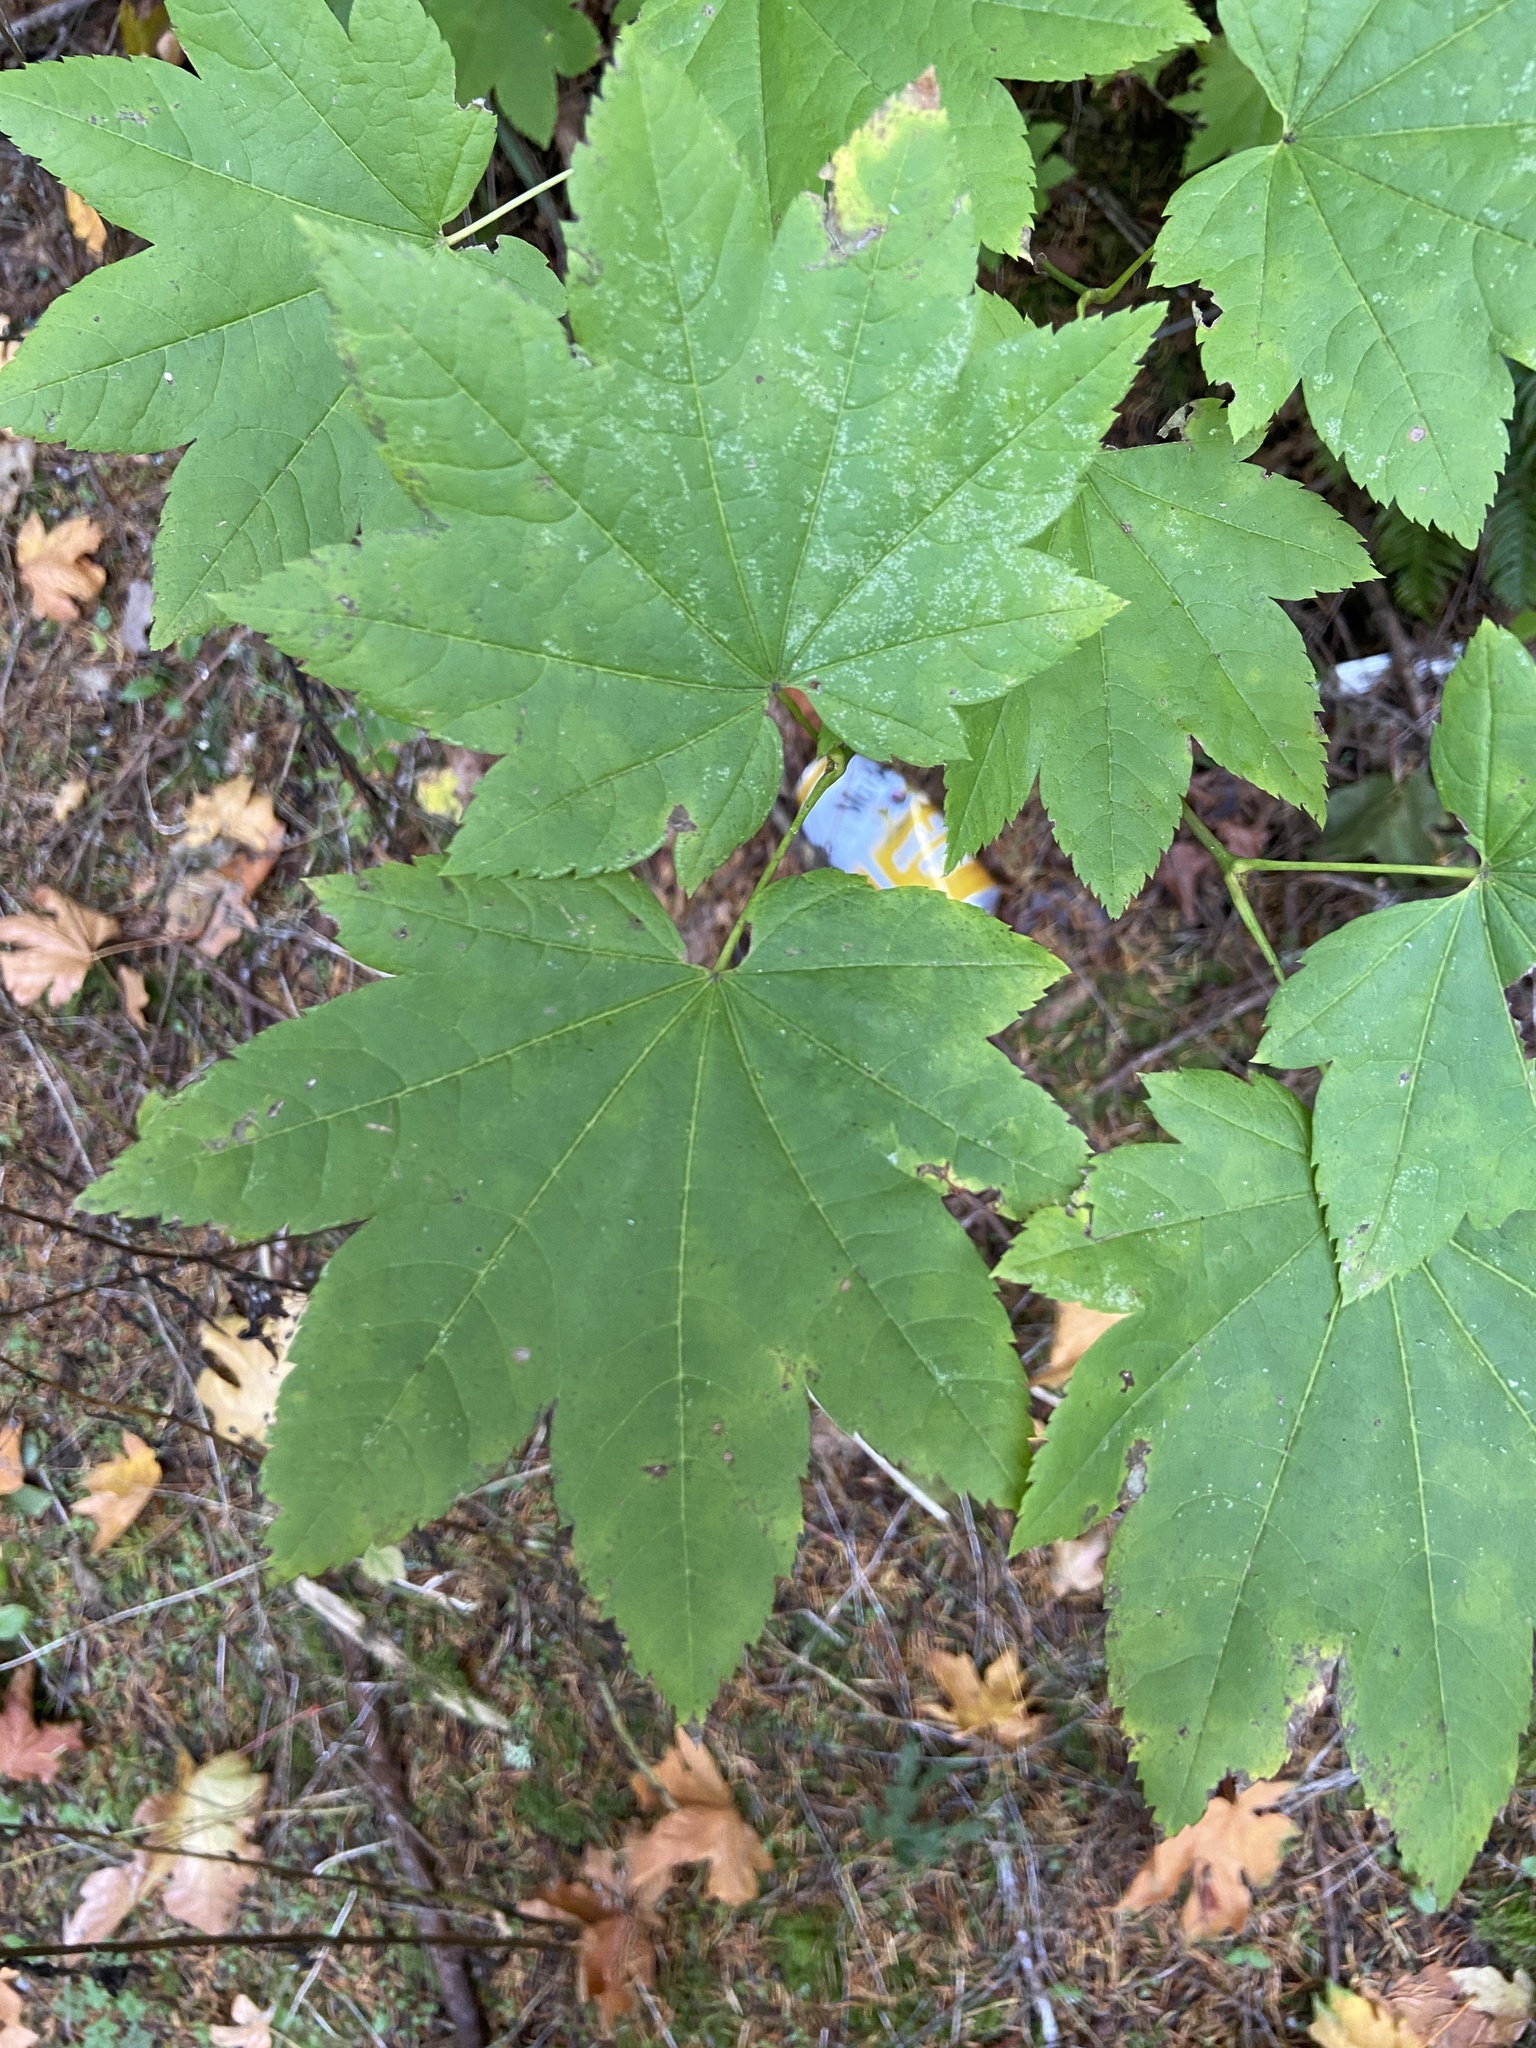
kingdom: Plantae
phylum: Tracheophyta
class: Magnoliopsida
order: Sapindales
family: Sapindaceae
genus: Acer
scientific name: Acer circinatum
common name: Vine maple
